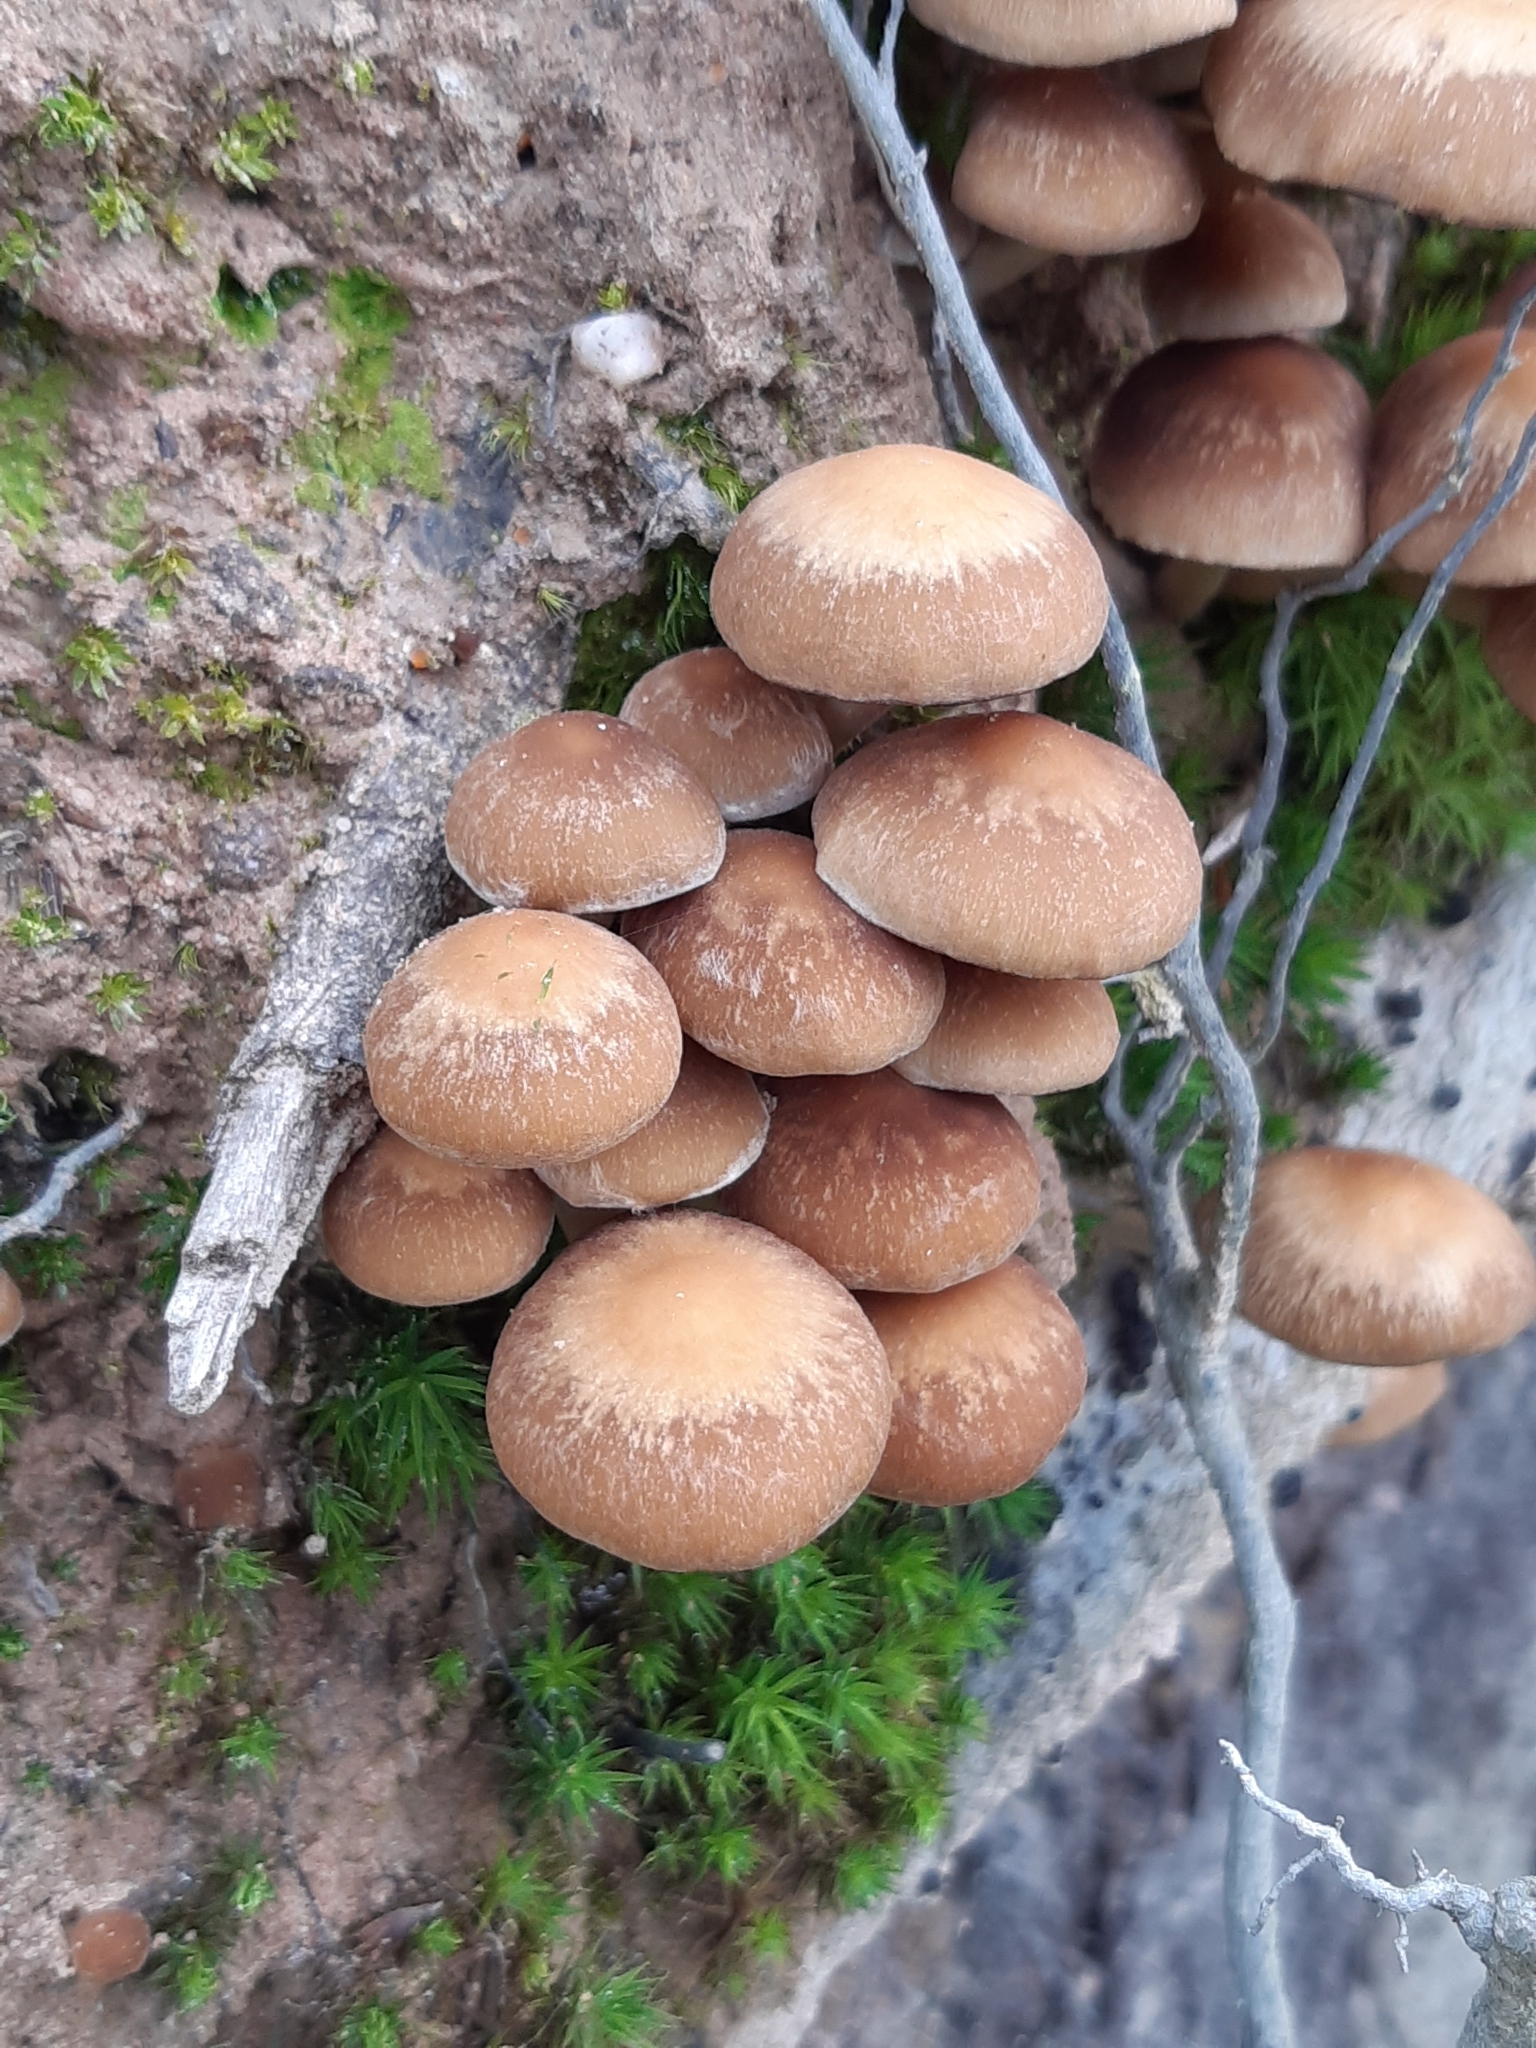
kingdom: Fungi
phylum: Basidiomycota
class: Agaricomycetes
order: Agaricales
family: Psathyrellaceae
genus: Psathyrella
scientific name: Psathyrella piluliformis
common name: Common stump brittlestem
